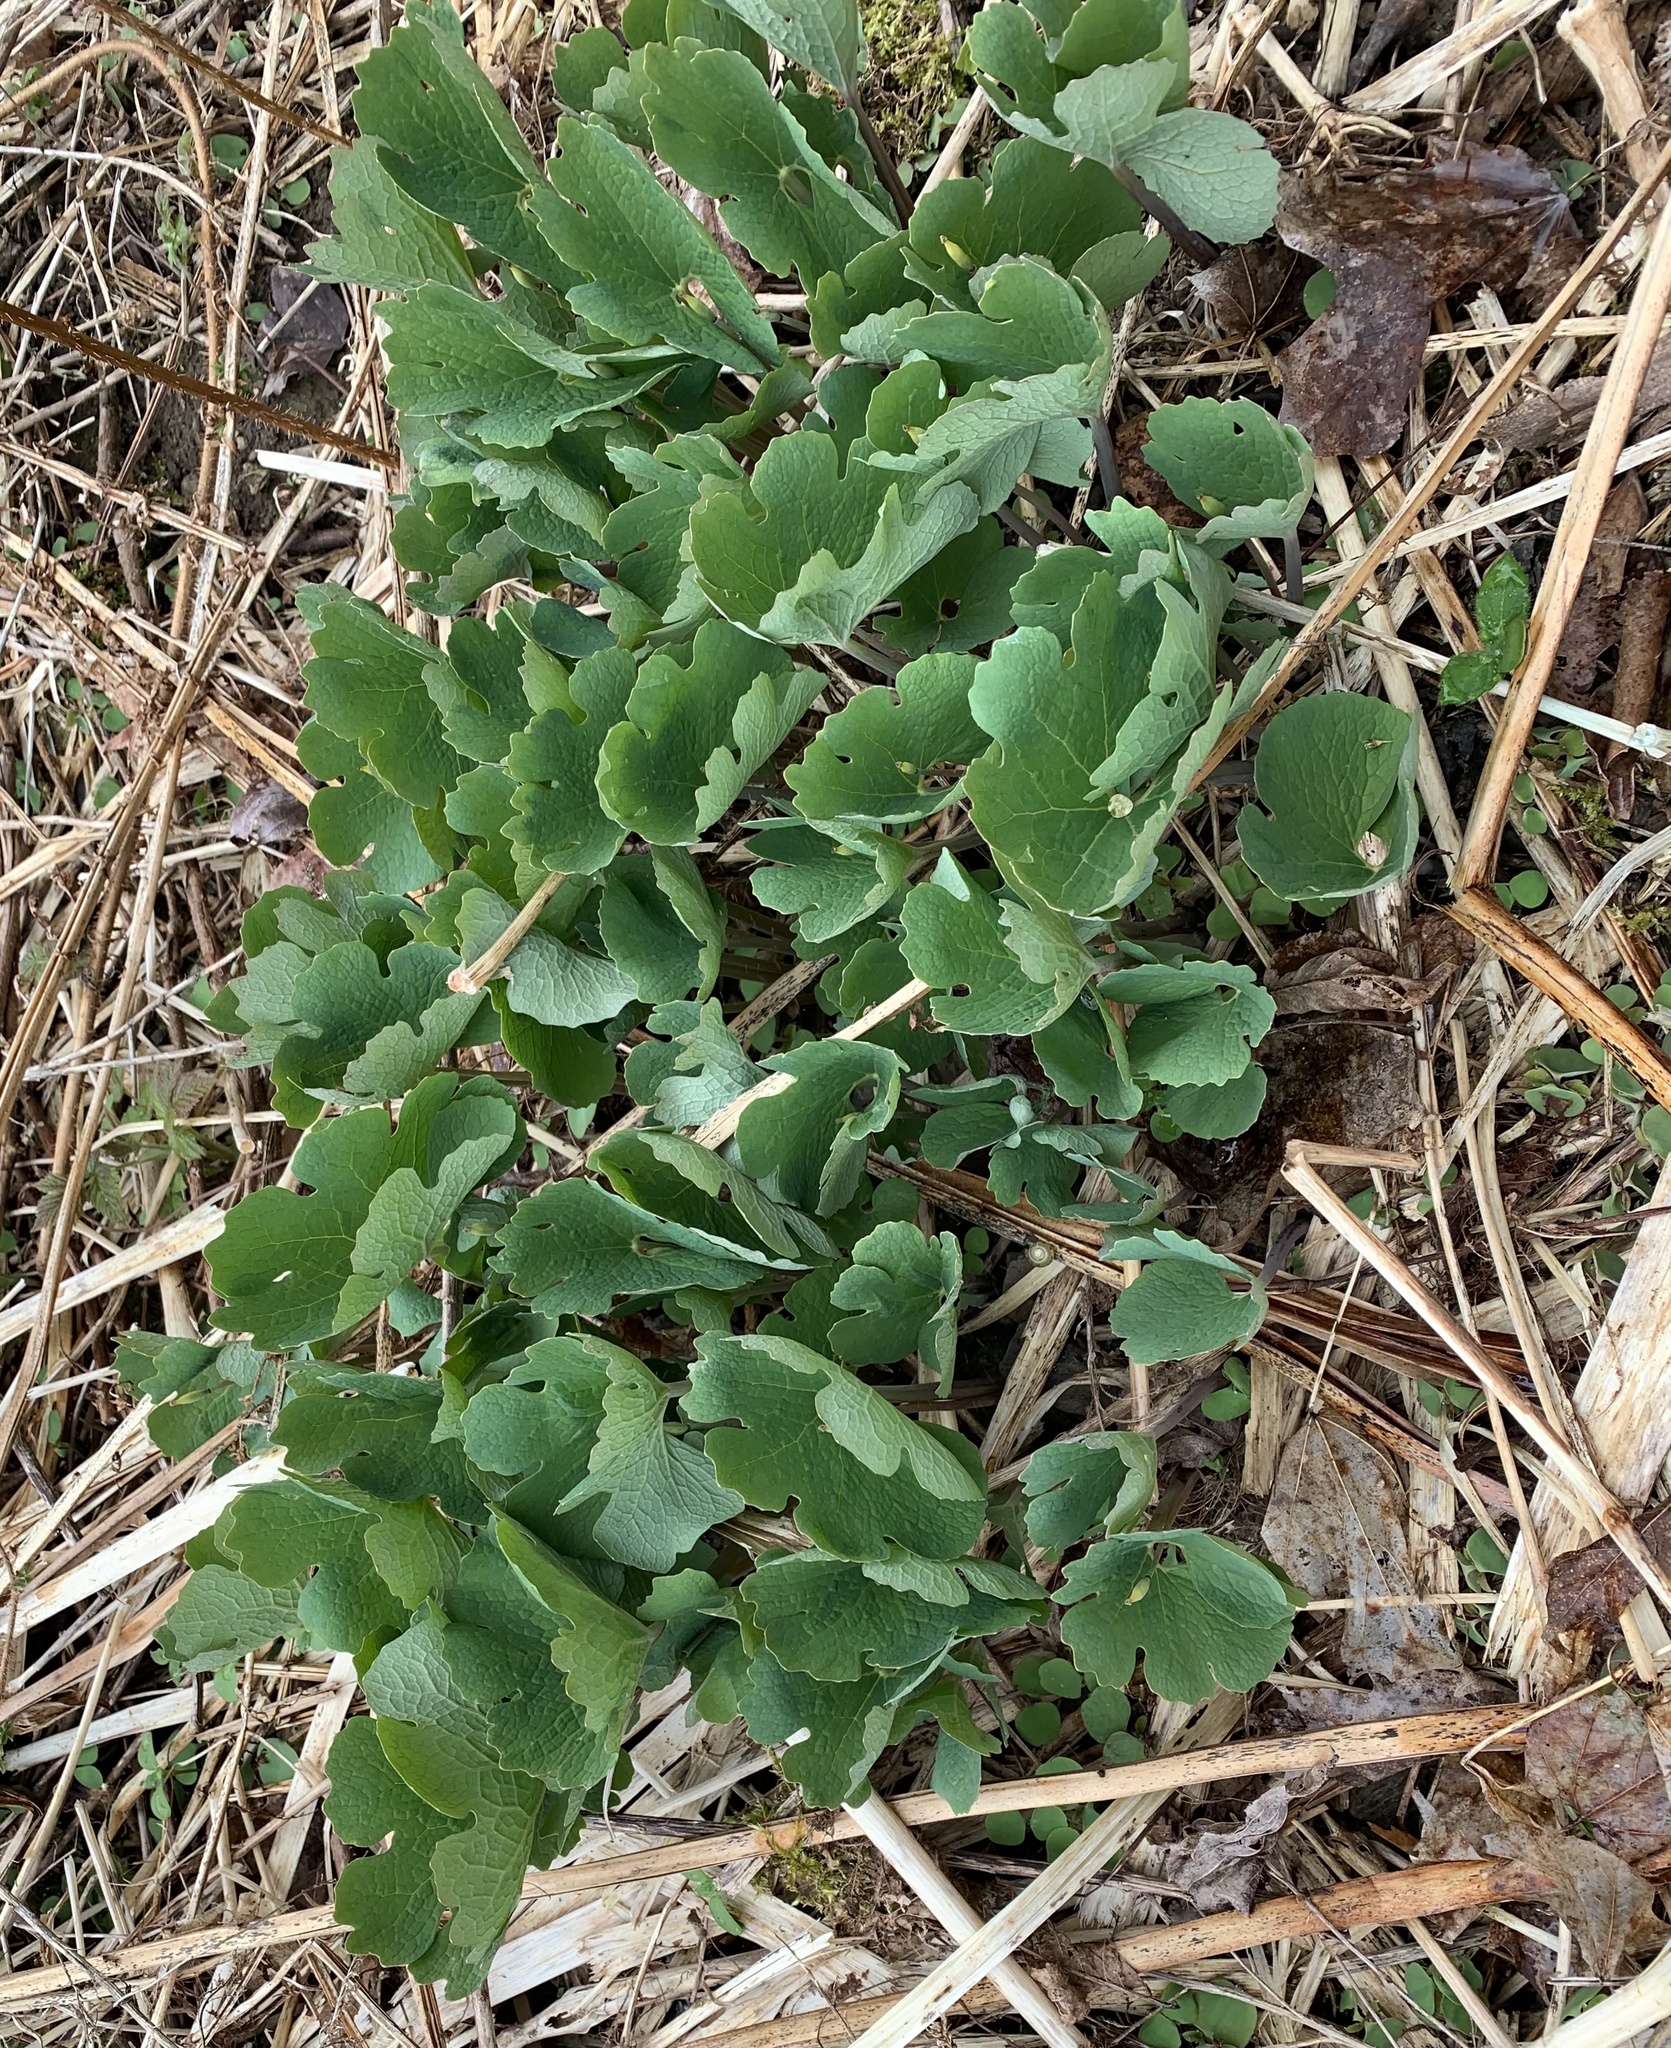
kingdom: Plantae
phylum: Tracheophyta
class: Magnoliopsida
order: Ranunculales
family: Papaveraceae
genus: Sanguinaria
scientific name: Sanguinaria canadensis
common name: Bloodroot
